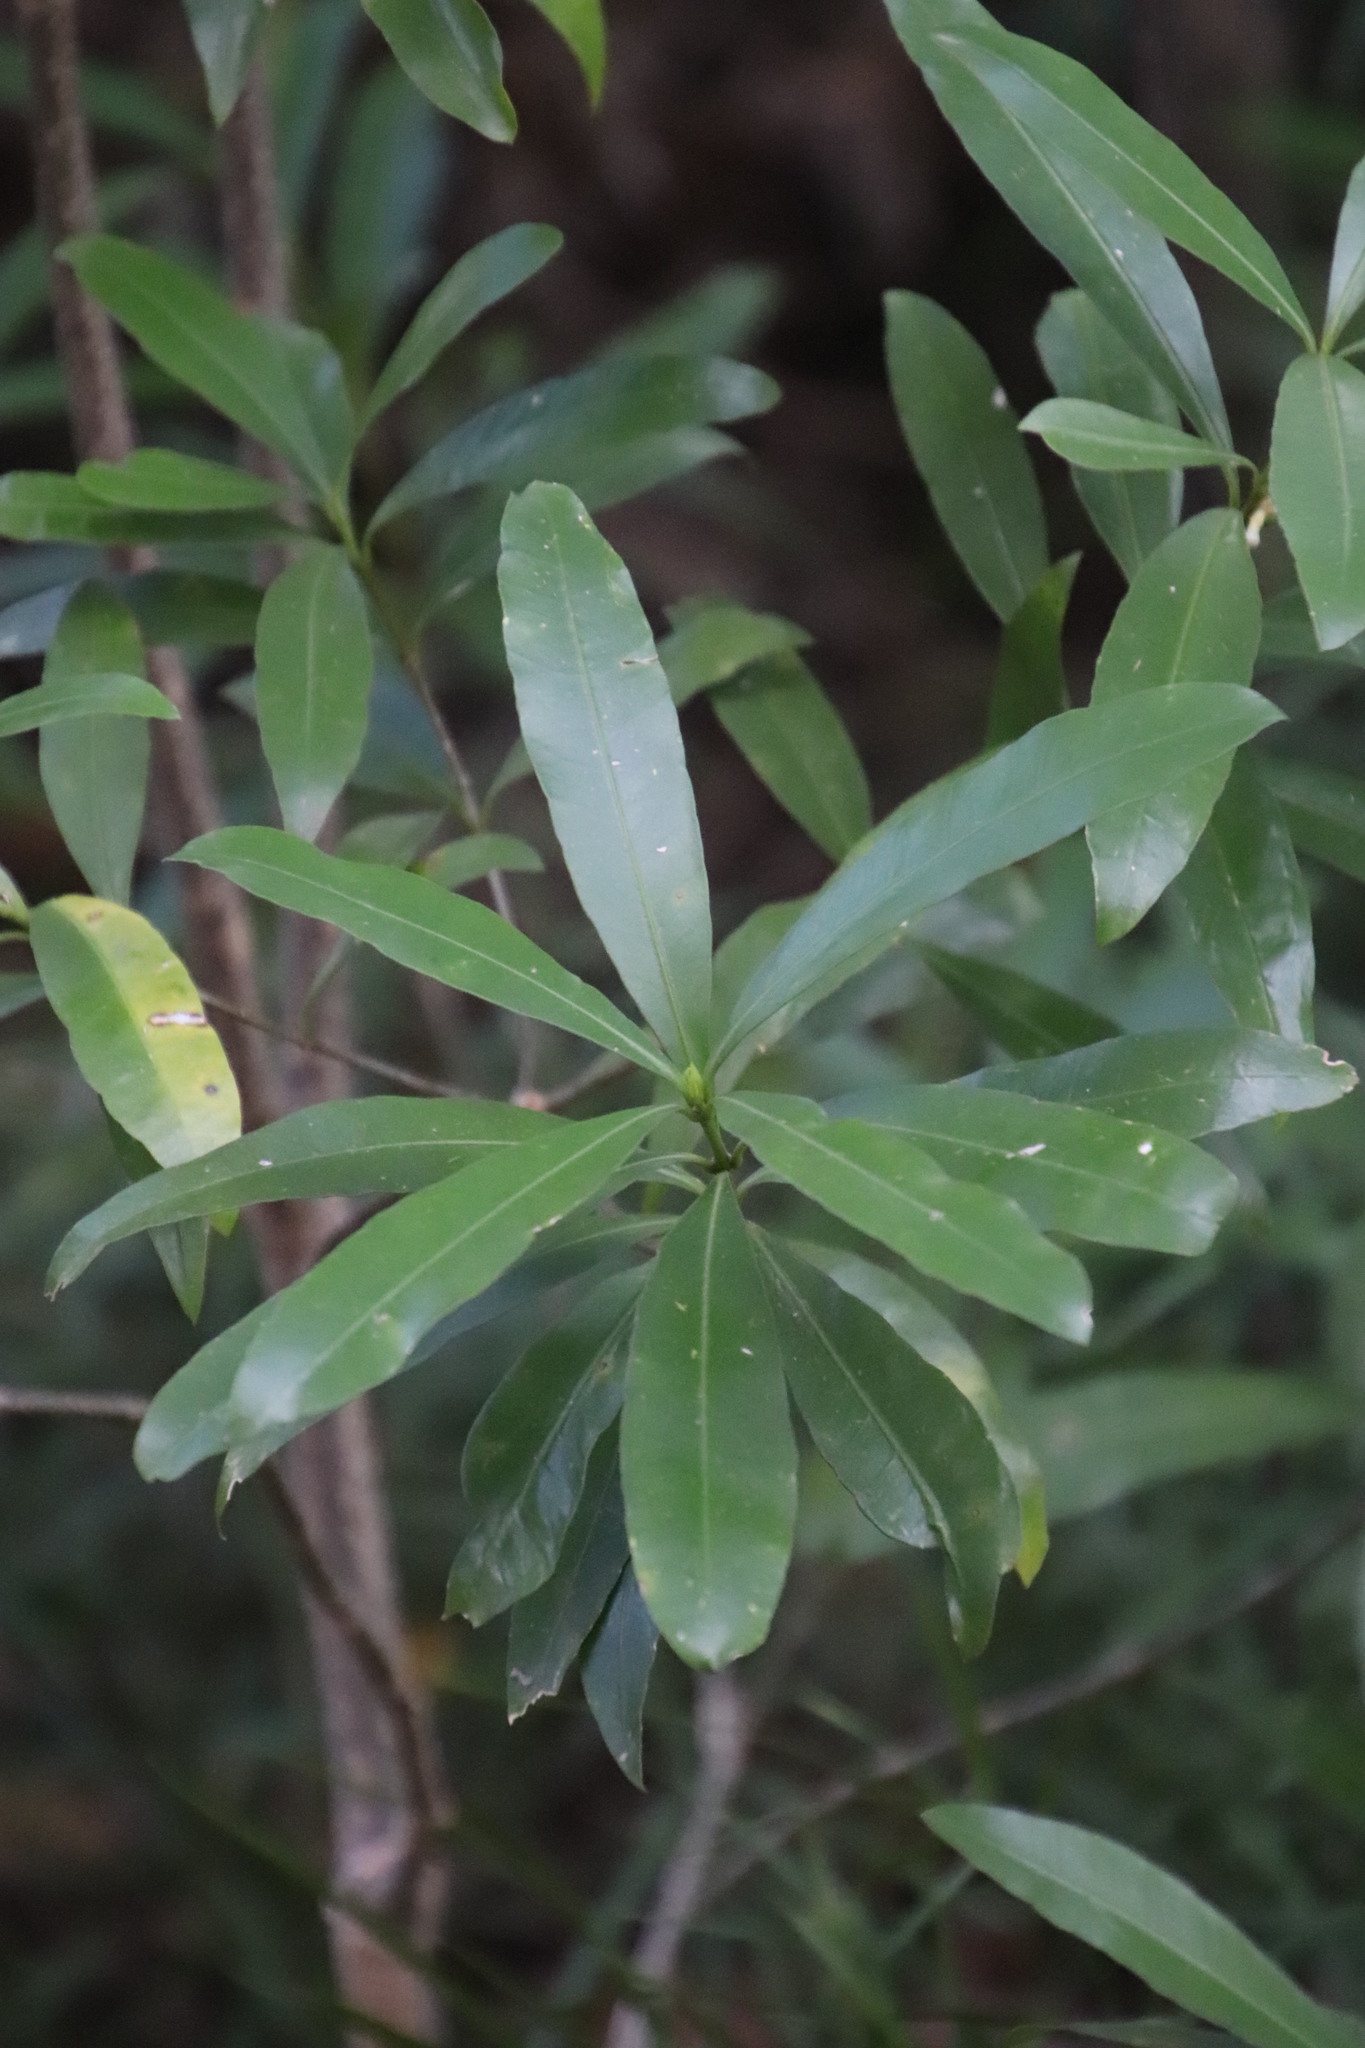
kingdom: Plantae
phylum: Tracheophyta
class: Magnoliopsida
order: Gentianales
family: Apocynaceae
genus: Gonioma
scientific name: Gonioma kamassi
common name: Kamassi
